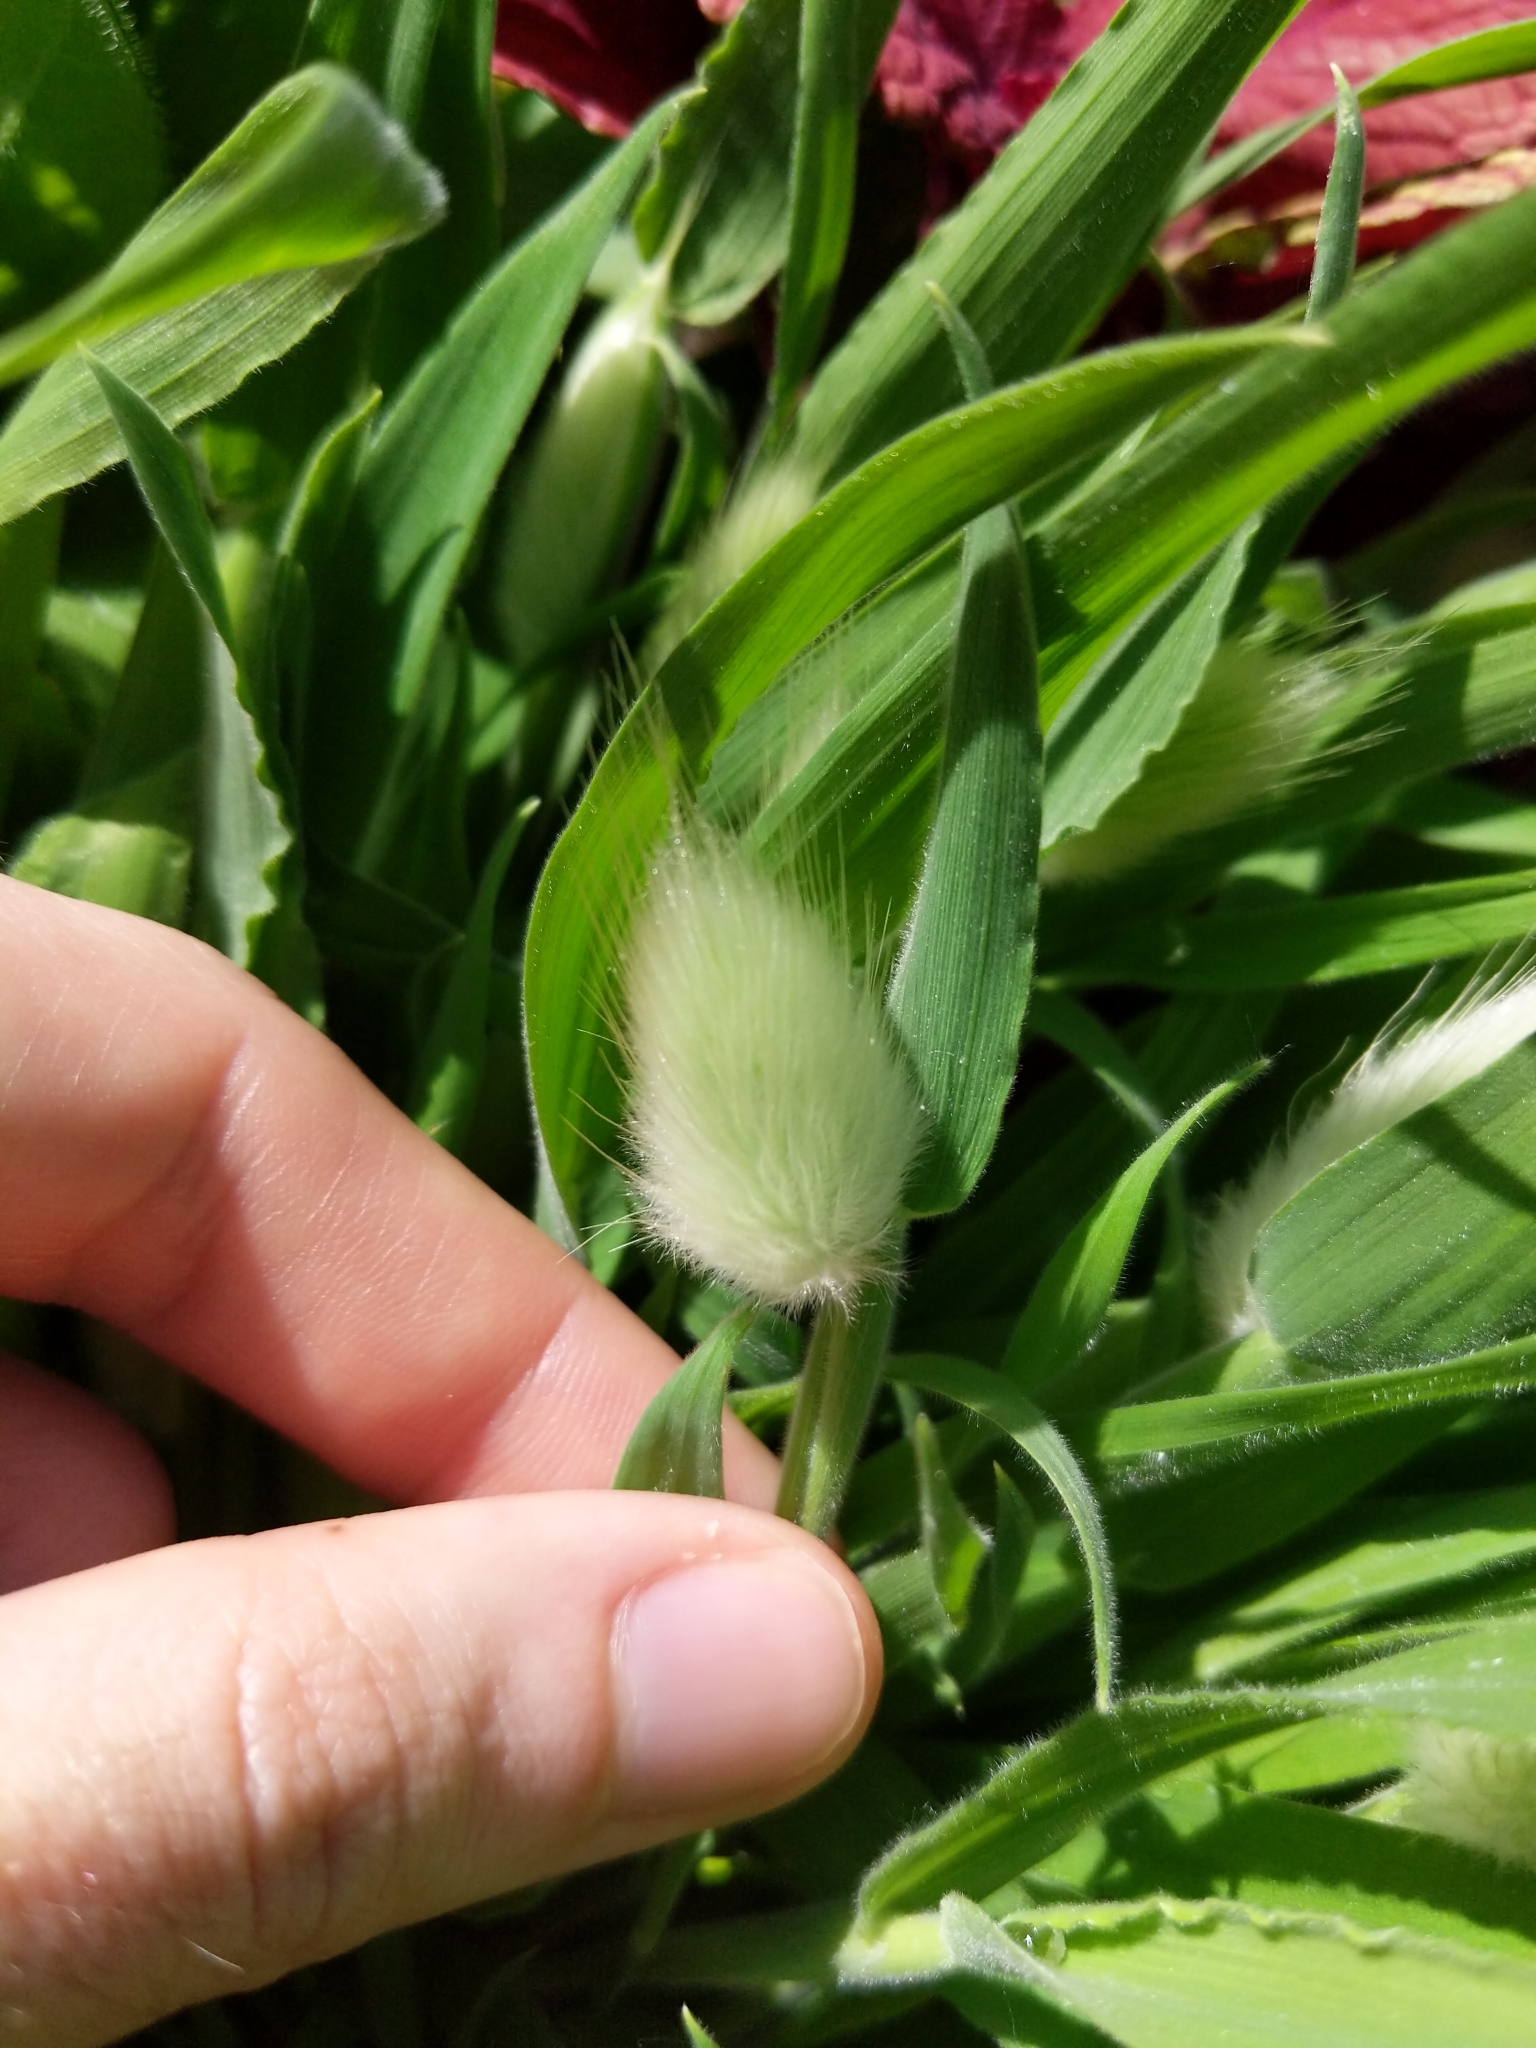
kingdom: Plantae
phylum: Tracheophyta
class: Liliopsida
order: Poales
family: Poaceae
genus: Lagurus
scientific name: Lagurus ovatus
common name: Hare's-tail
